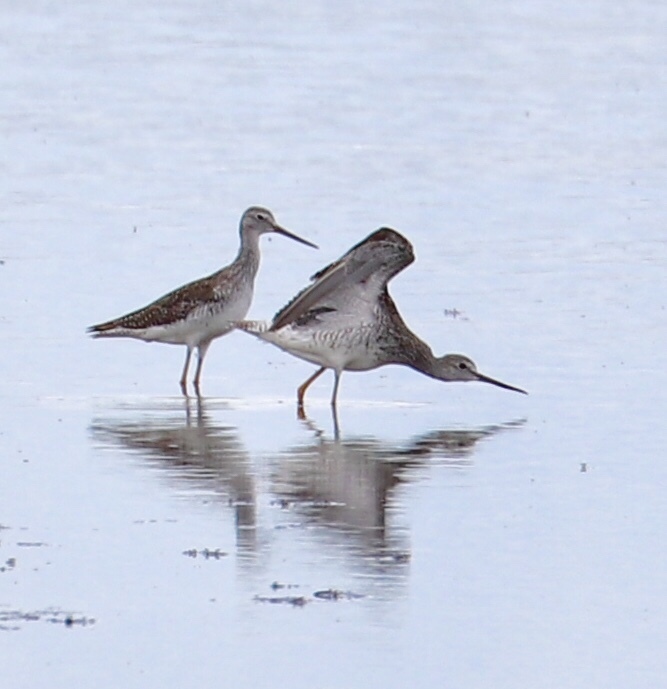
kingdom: Animalia
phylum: Chordata
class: Aves
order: Charadriiformes
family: Scolopacidae
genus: Tringa
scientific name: Tringa melanoleuca
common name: Greater yellowlegs
